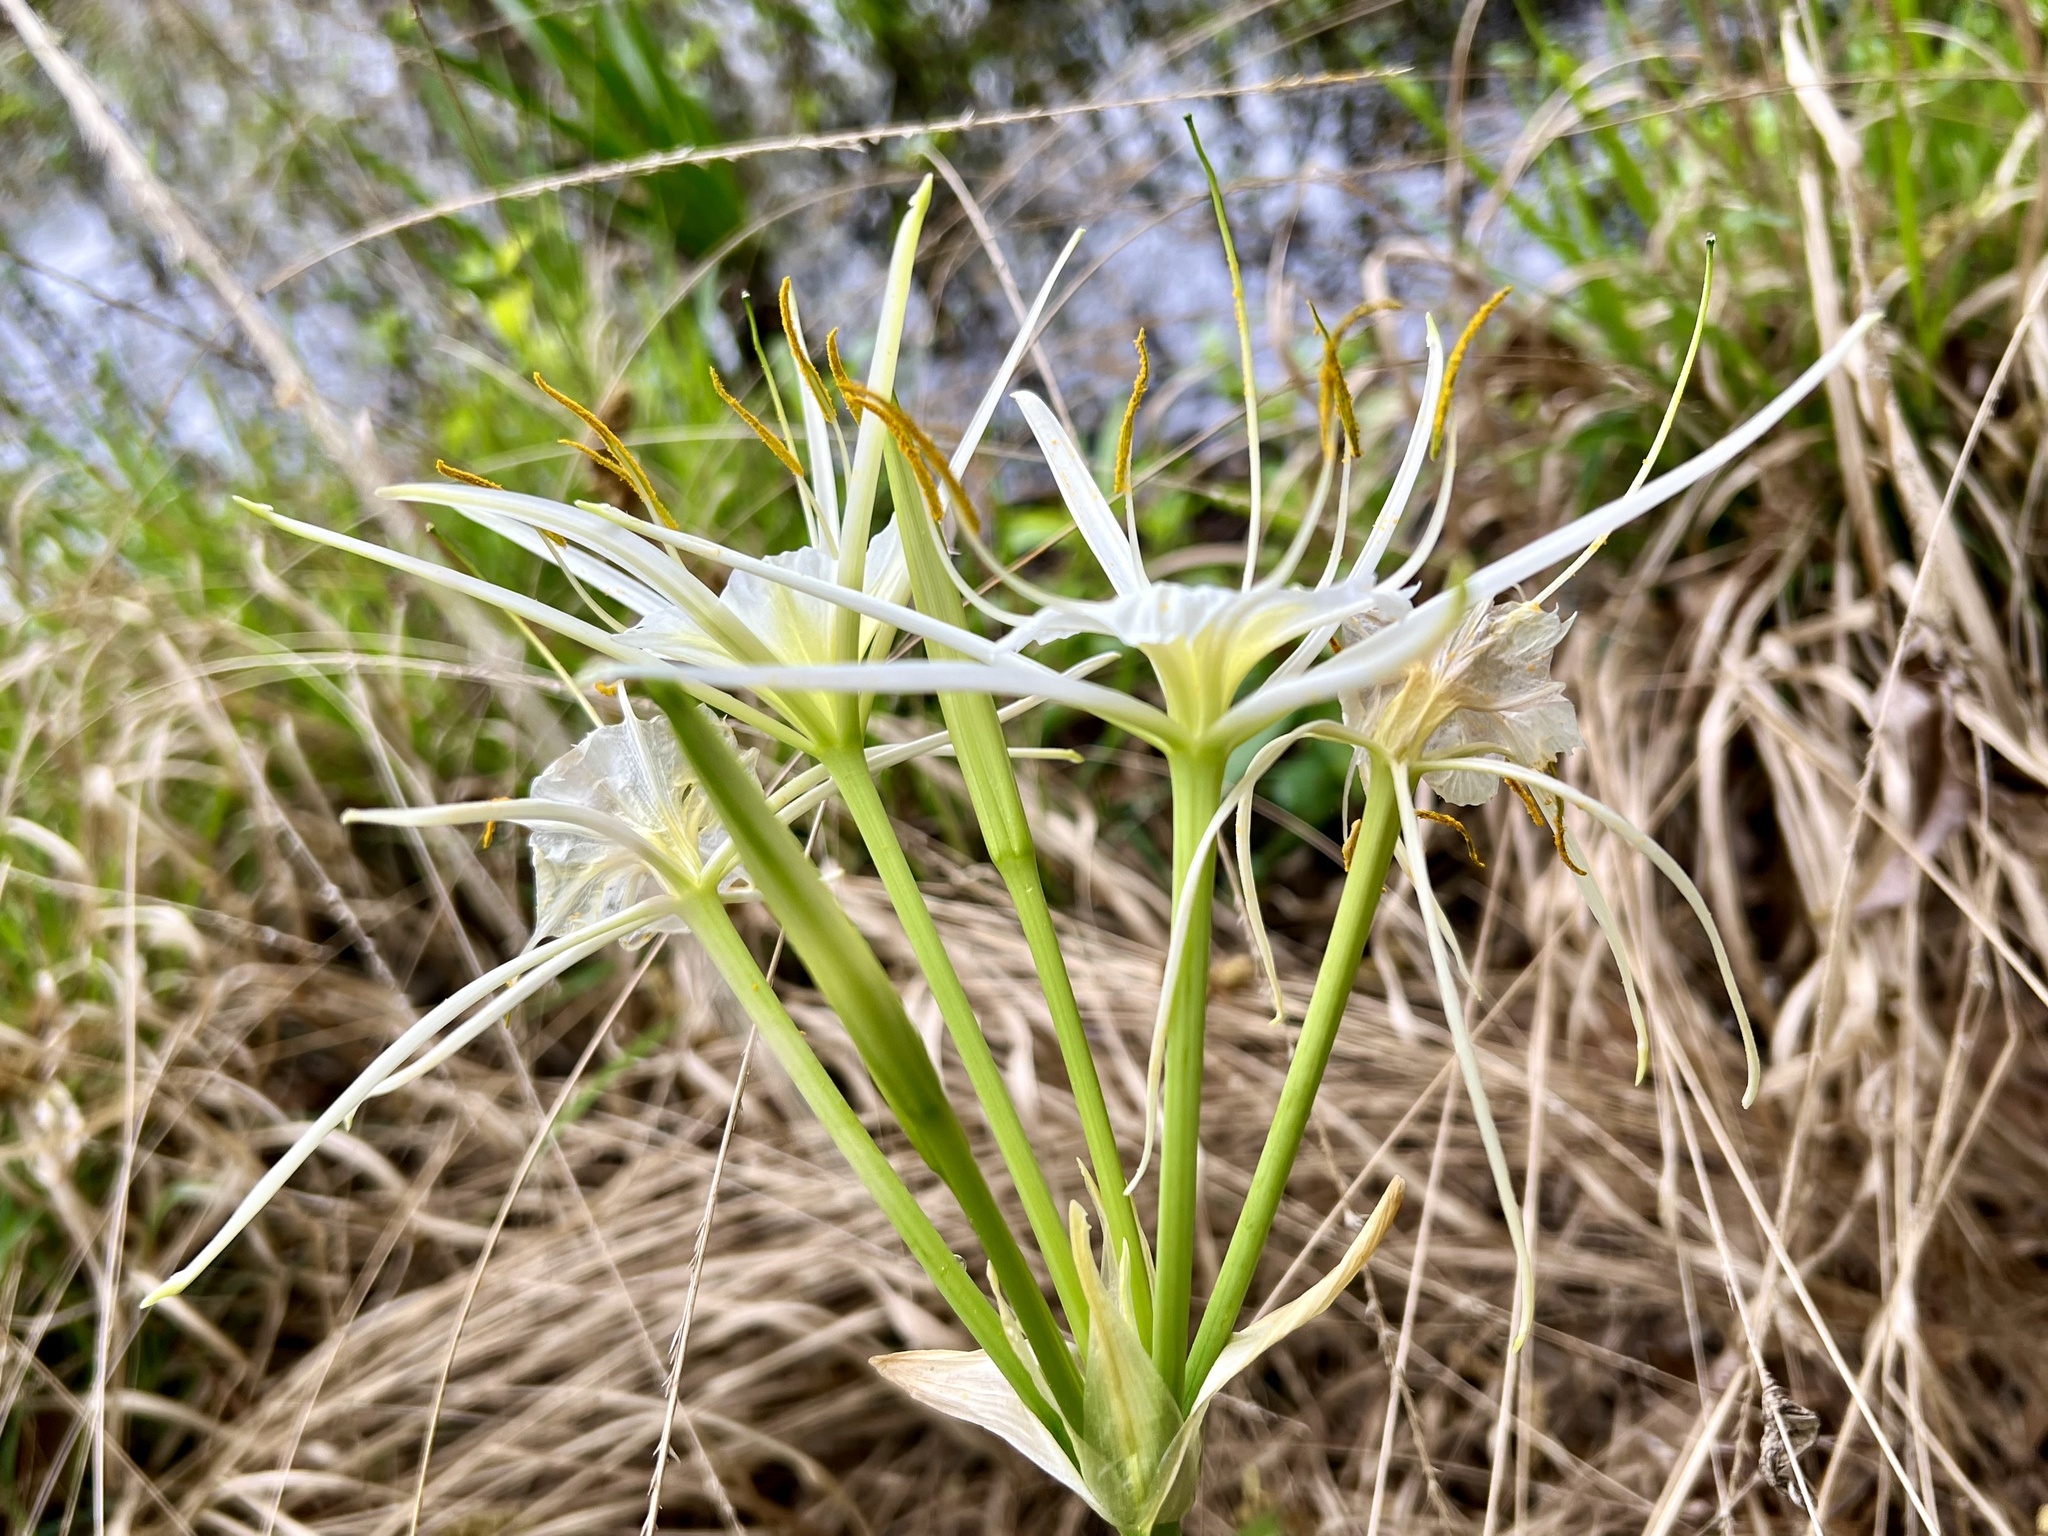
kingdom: Plantae
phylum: Tracheophyta
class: Liliopsida
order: Asparagales
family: Amaryllidaceae
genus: Hymenocallis
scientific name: Hymenocallis liriosme
